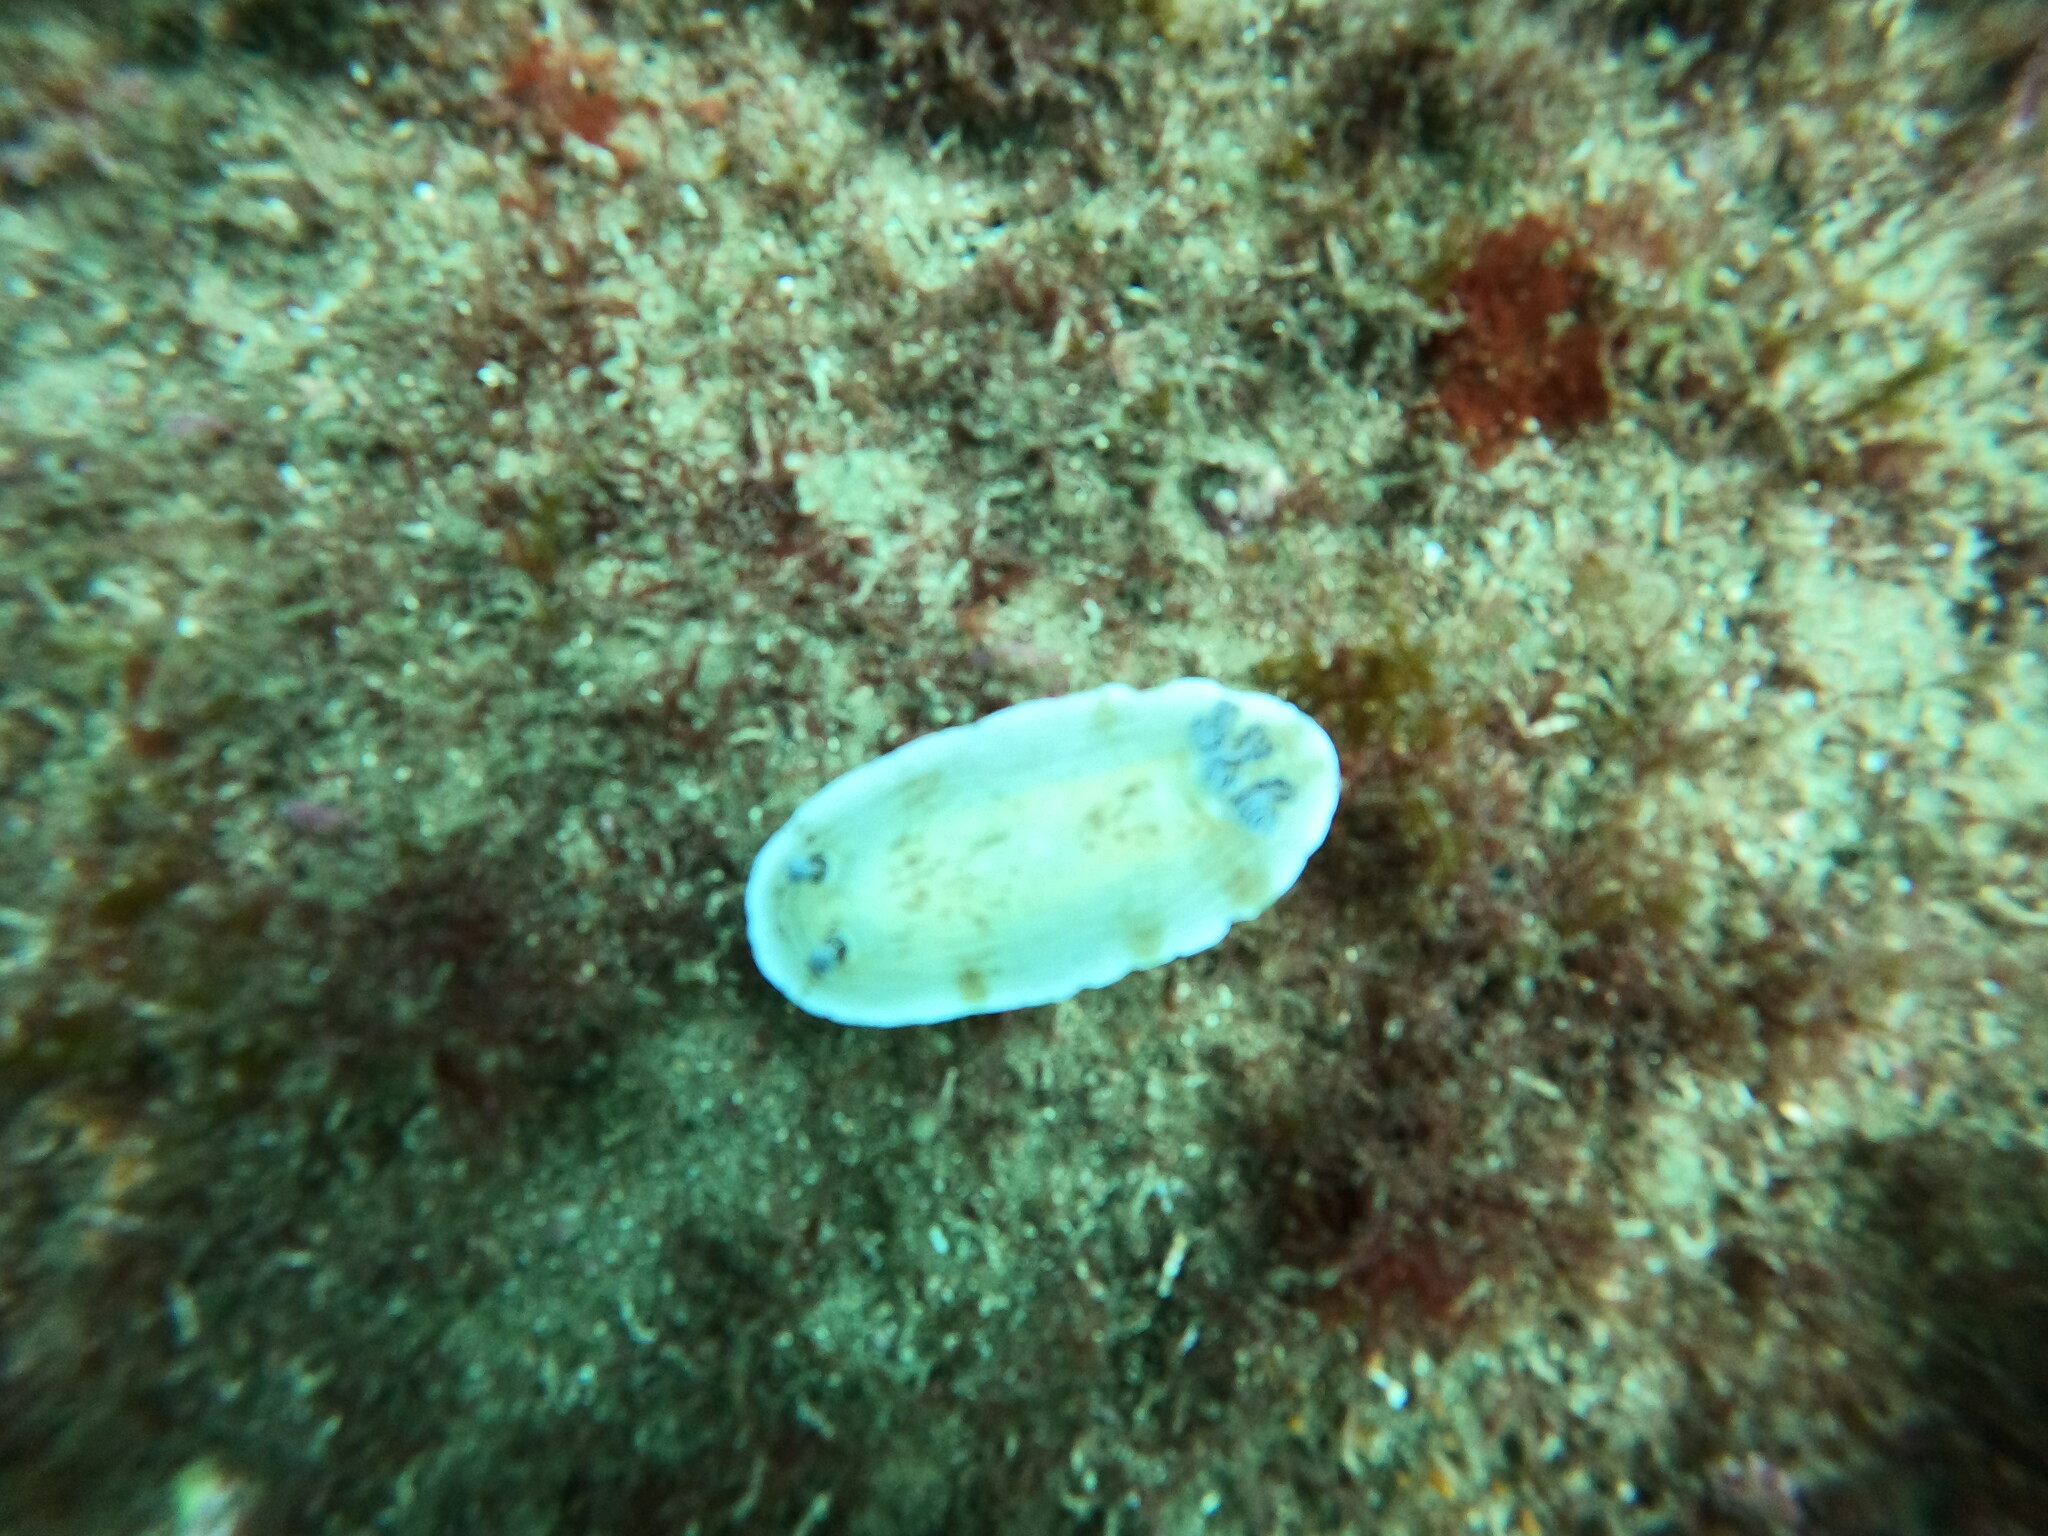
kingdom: Animalia
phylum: Mollusca
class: Gastropoda
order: Nudibranchia
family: Dorididae
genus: Aphelodoris
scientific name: Aphelodoris varia
